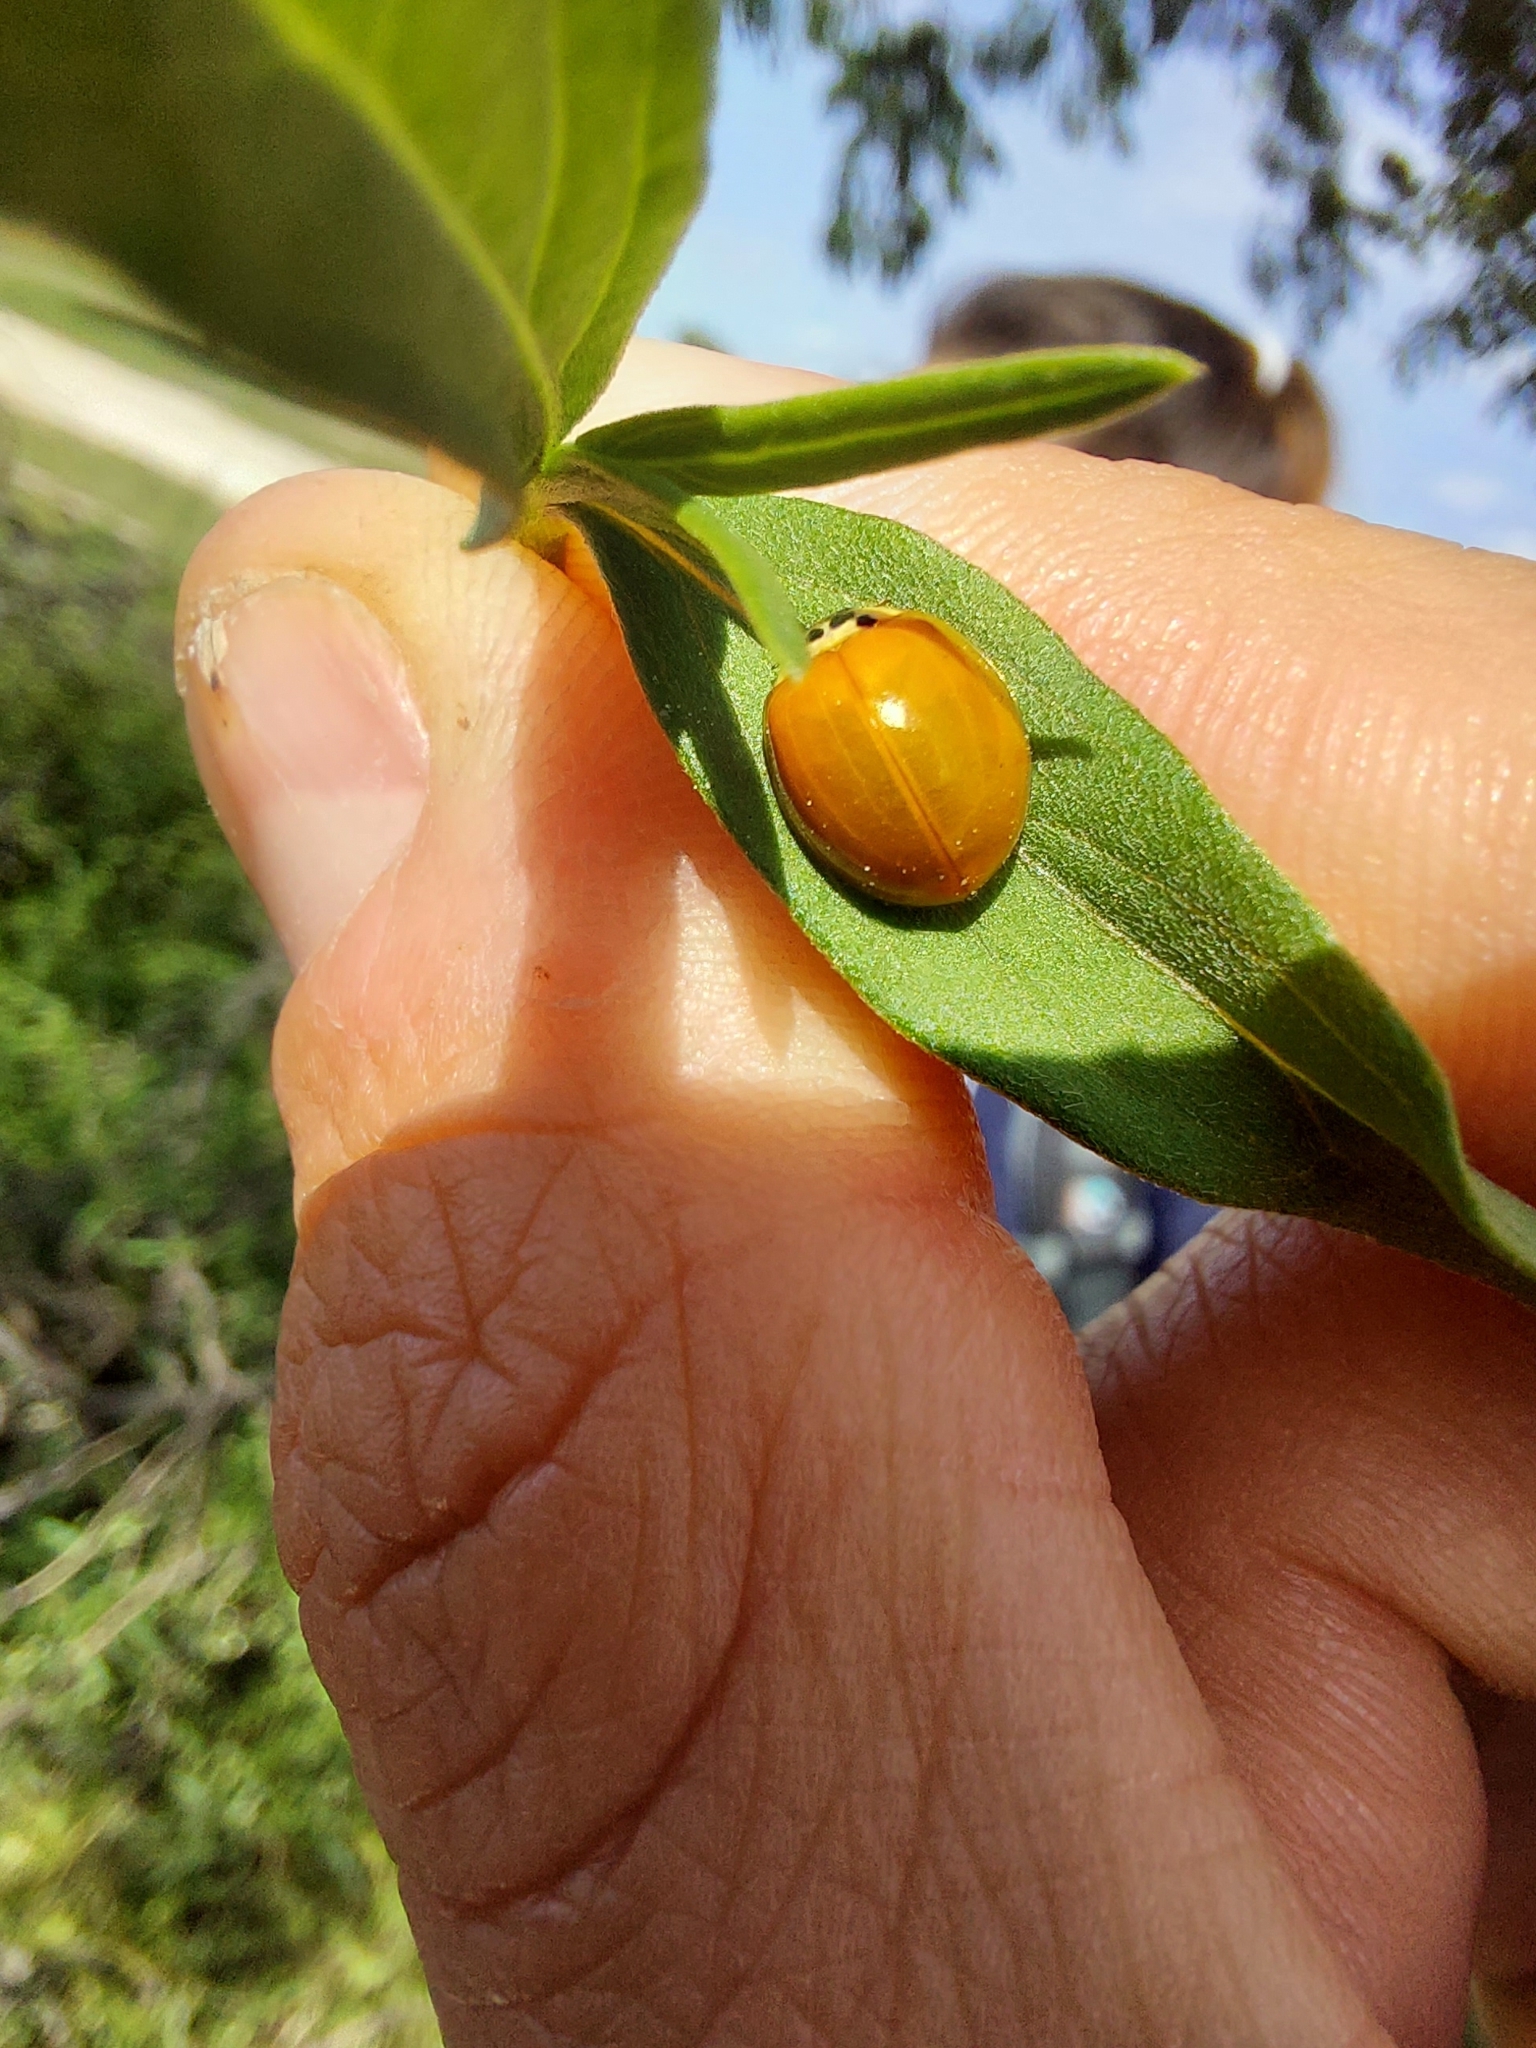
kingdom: Animalia
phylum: Arthropoda
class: Insecta
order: Coleoptera
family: Coccinellidae
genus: Harmonia
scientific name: Harmonia axyridis
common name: Harlequin ladybird
